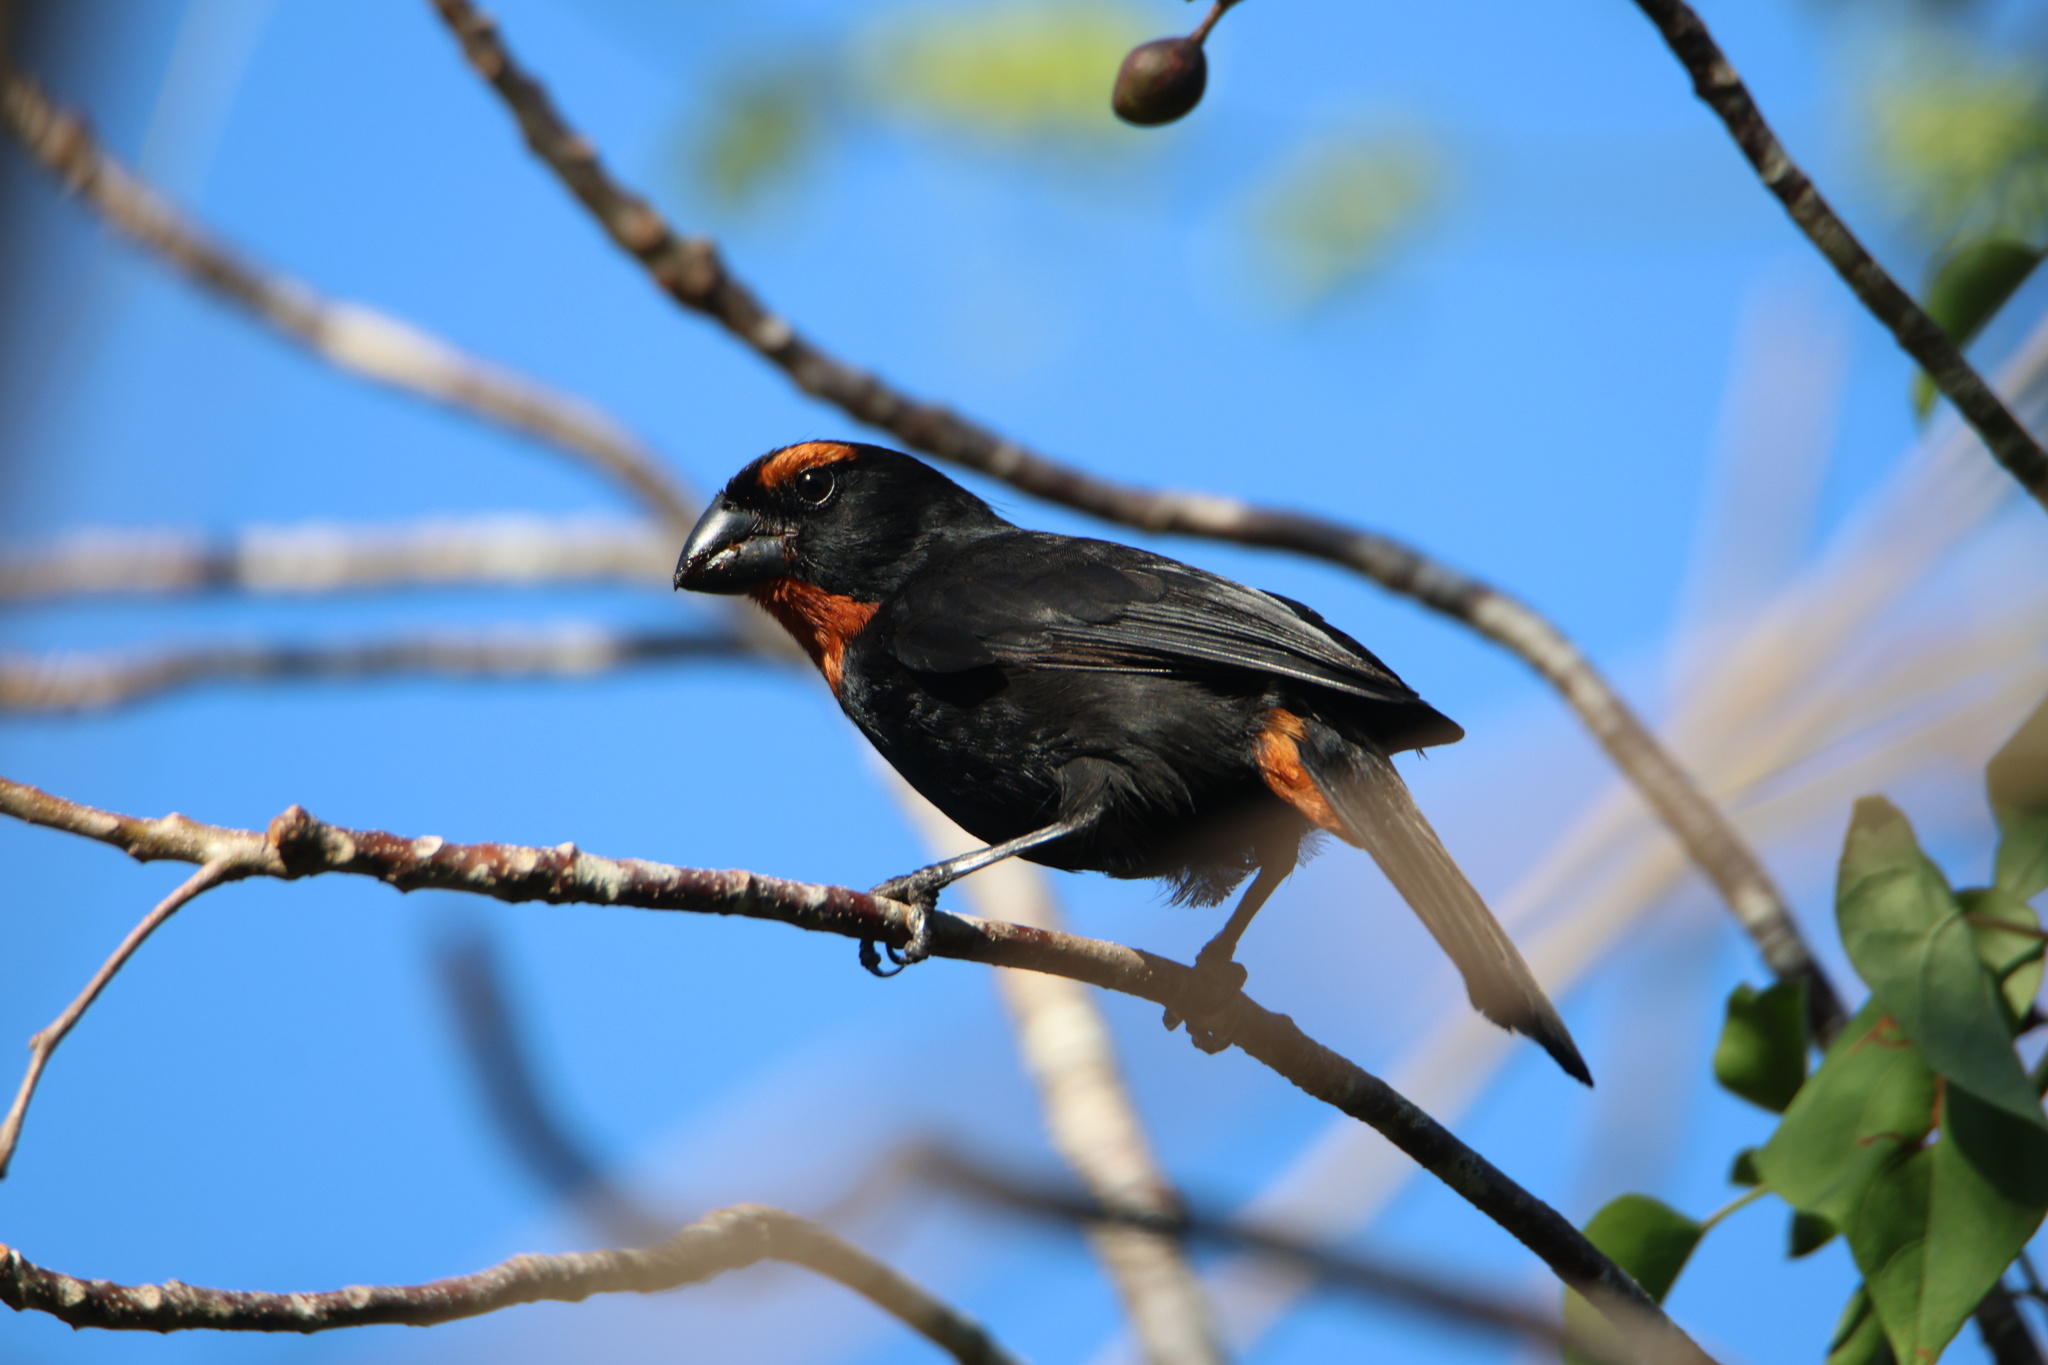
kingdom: Animalia
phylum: Chordata
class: Aves
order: Passeriformes
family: Thraupidae
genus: Melopyrrha
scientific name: Melopyrrha violacea
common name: Greater antillean bullfinch
